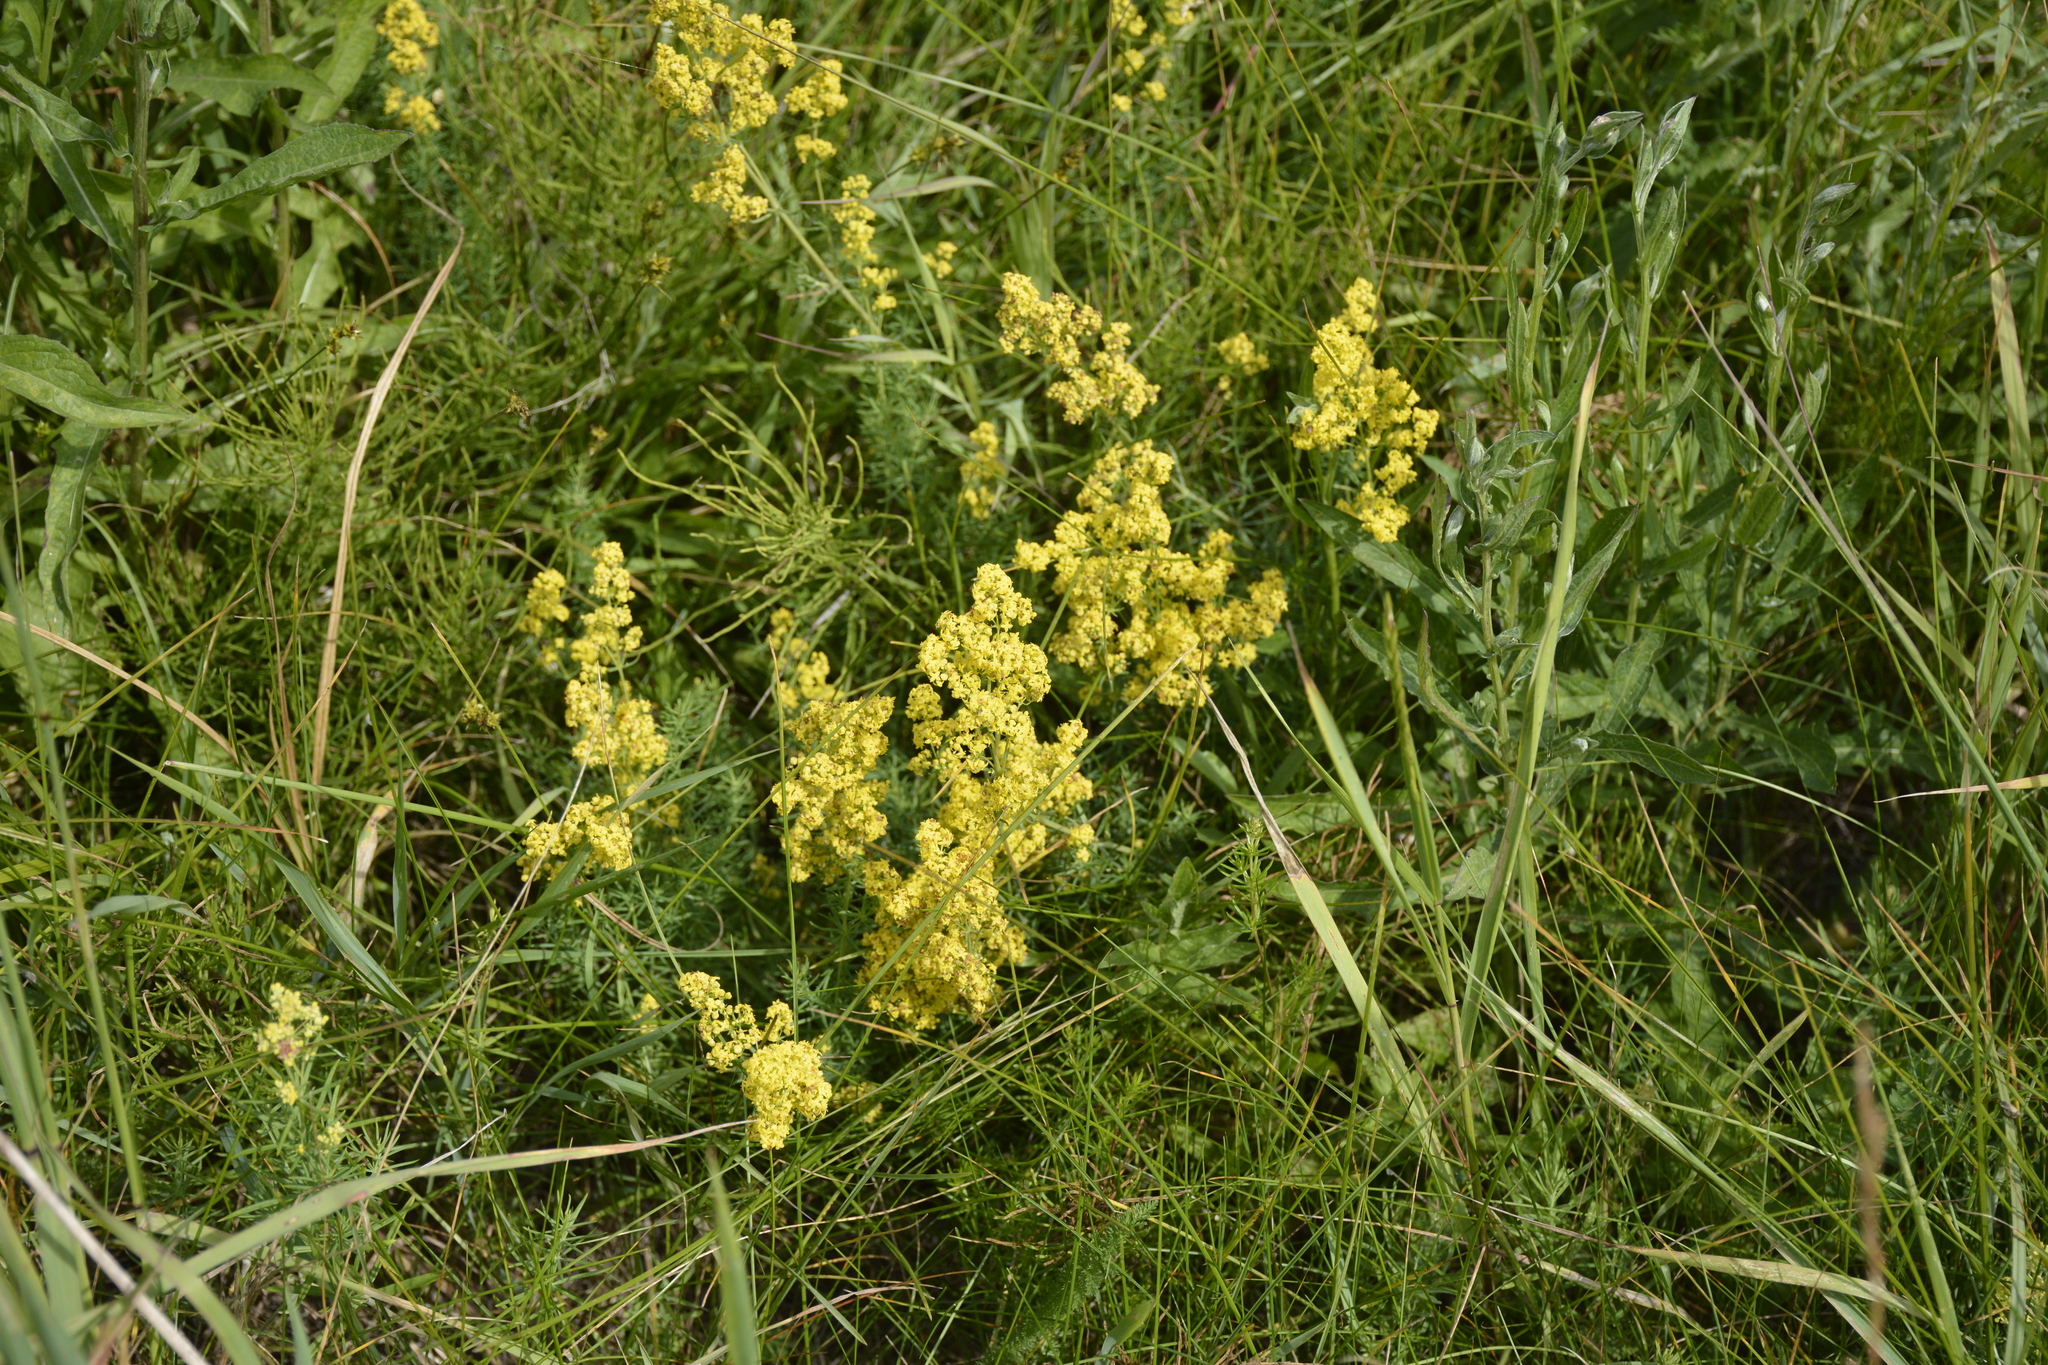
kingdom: Plantae
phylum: Tracheophyta
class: Magnoliopsida
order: Gentianales
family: Rubiaceae
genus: Galium
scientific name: Galium verum
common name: Lady's bedstraw
